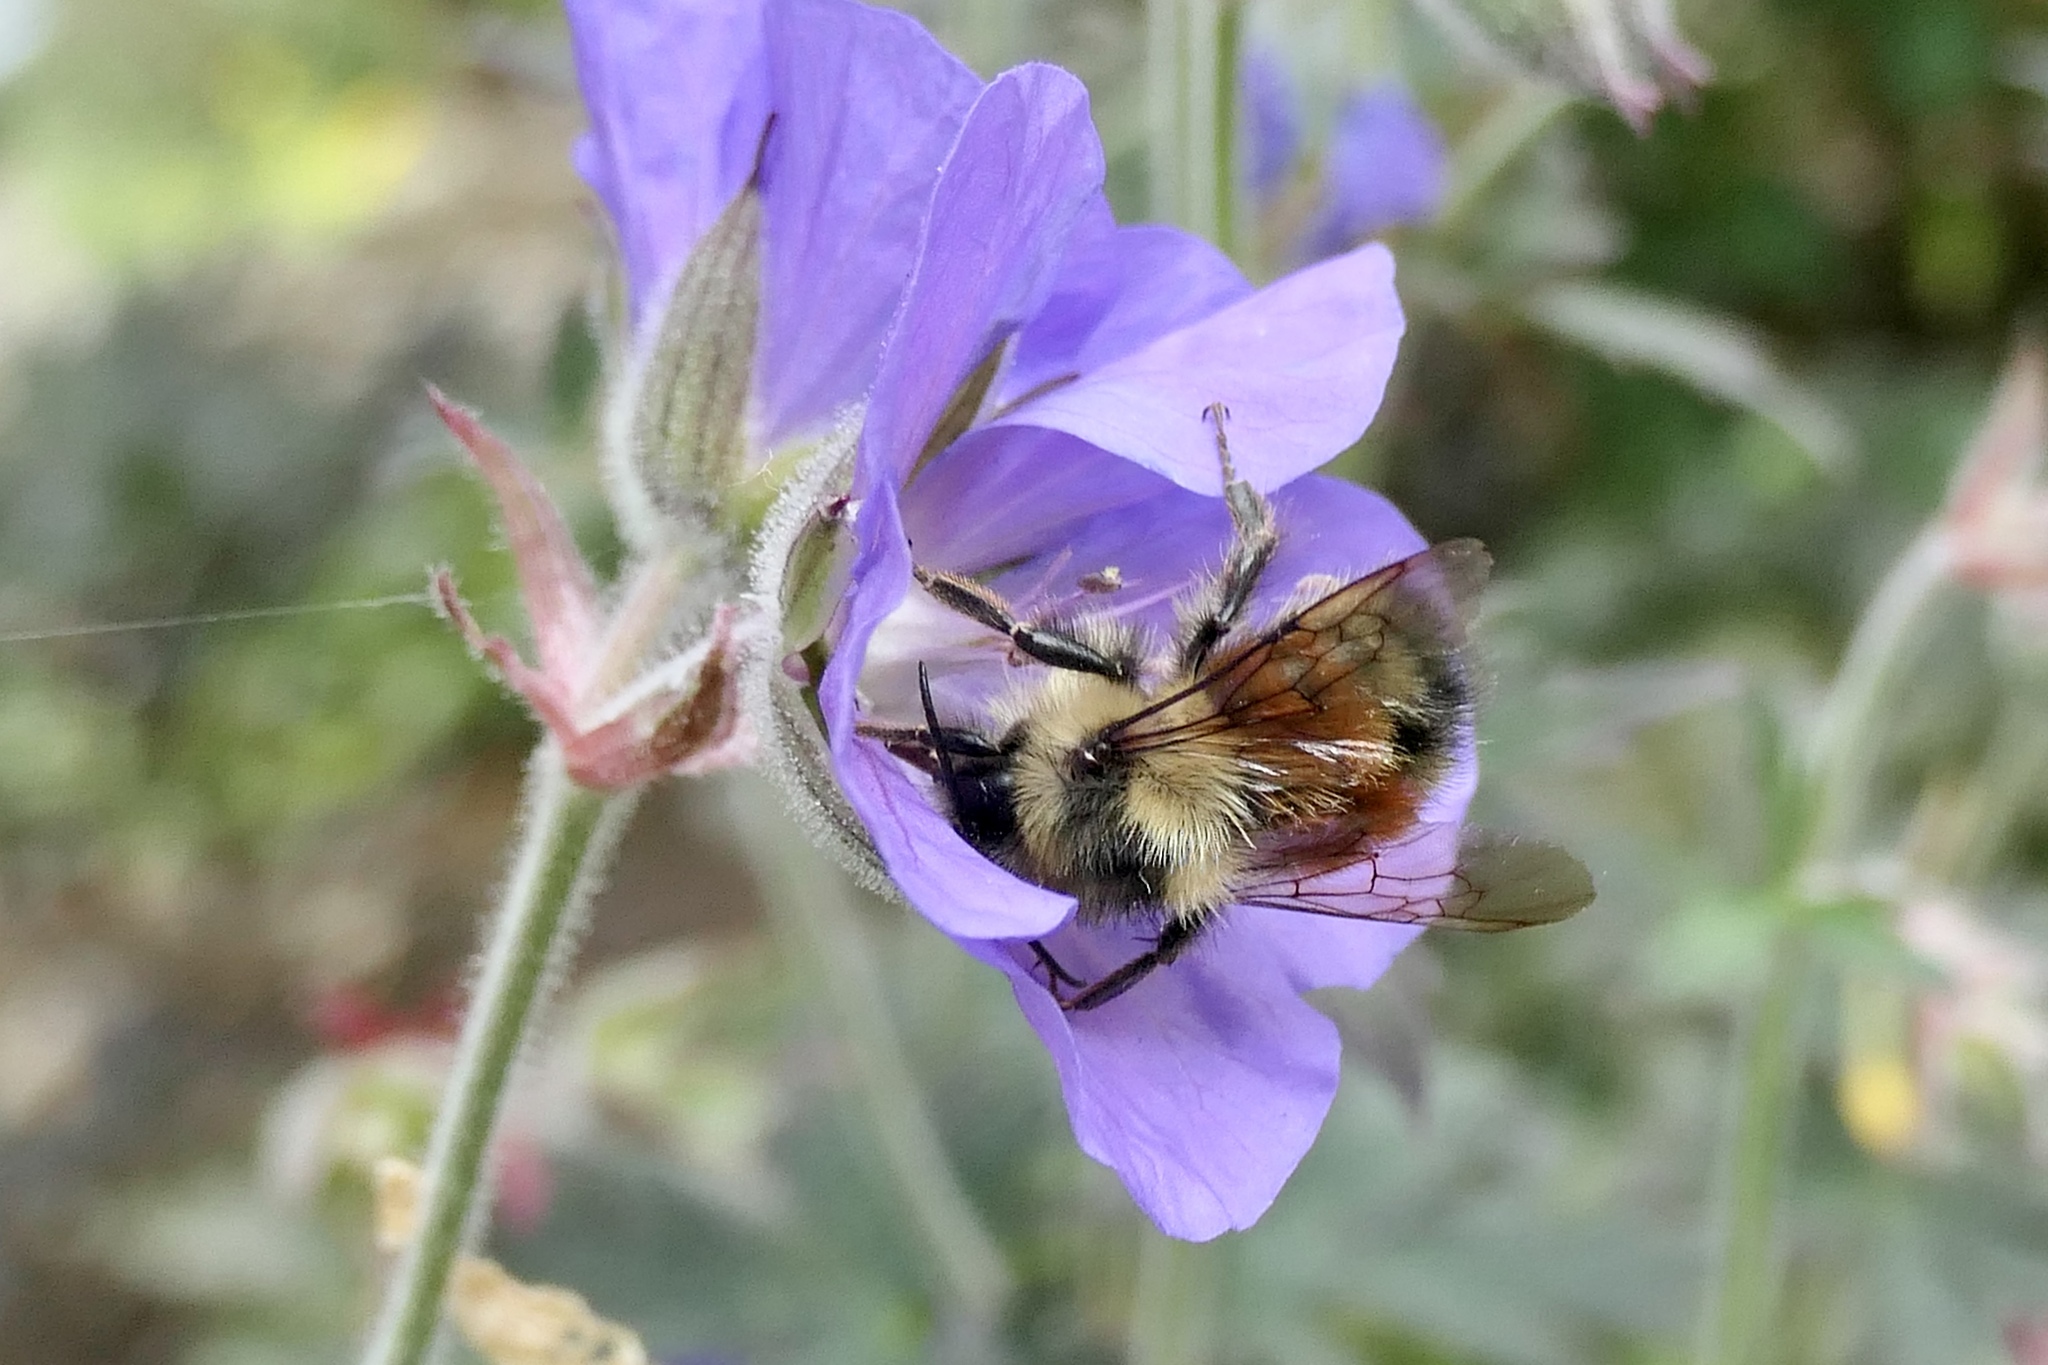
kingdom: Animalia
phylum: Arthropoda
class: Insecta
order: Hymenoptera
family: Apidae
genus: Bombus
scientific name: Bombus melanopygus
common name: Black tail bumble bee
